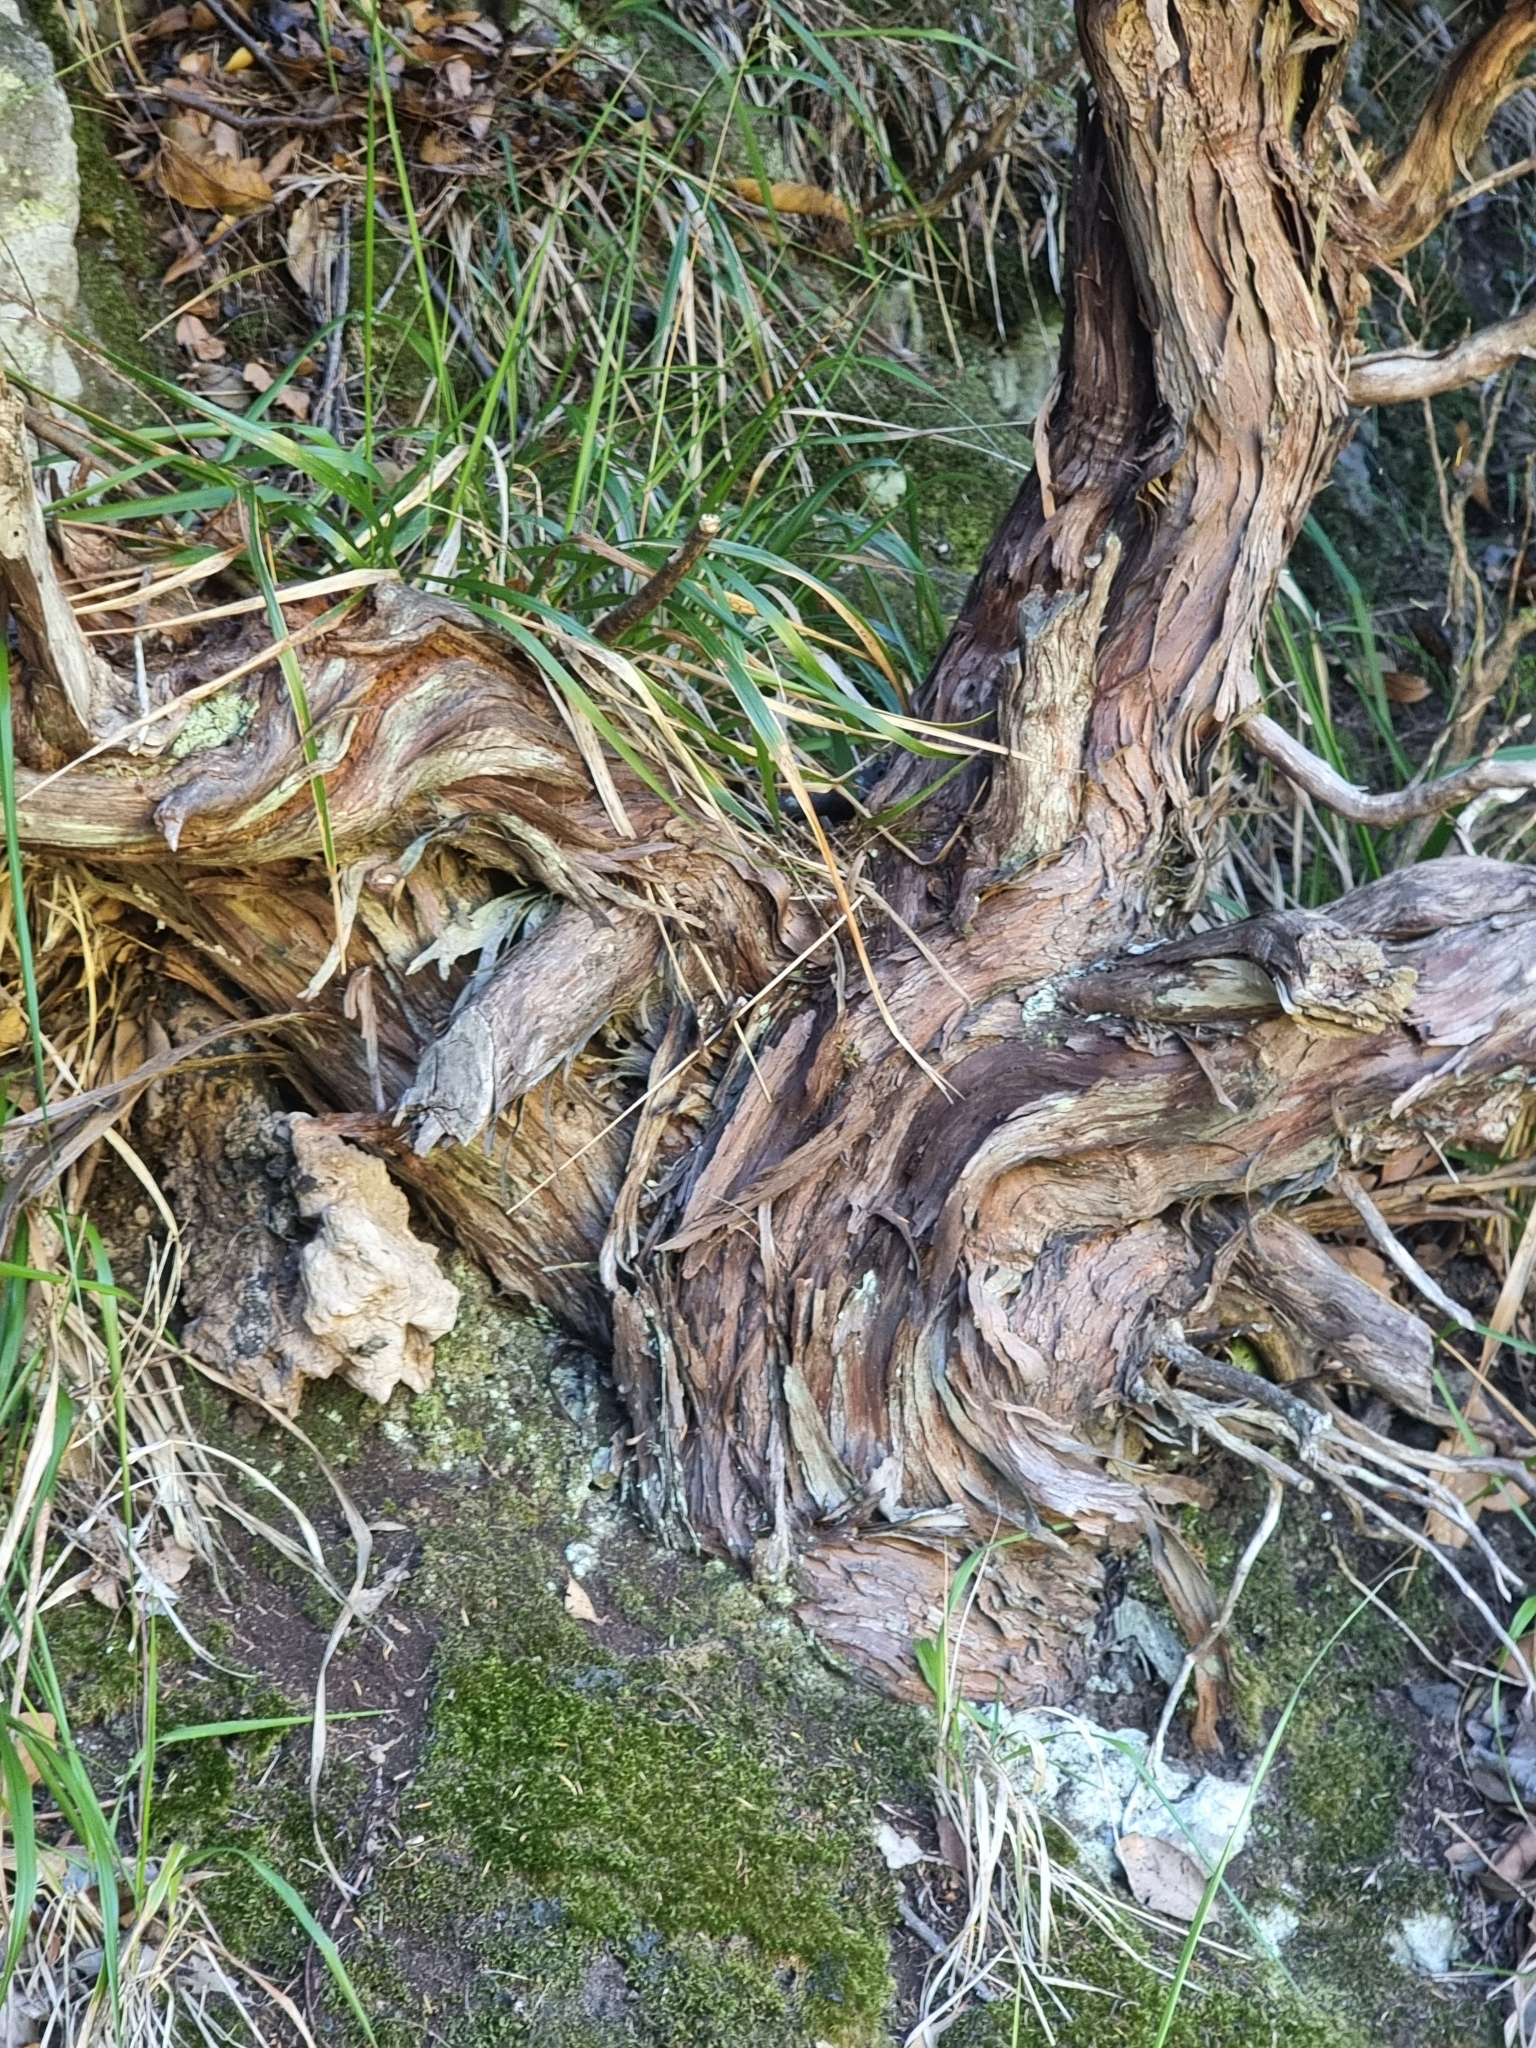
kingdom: Plantae
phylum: Tracheophyta
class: Magnoliopsida
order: Ericales
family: Ericaceae
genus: Erica
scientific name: Erica platycodon
